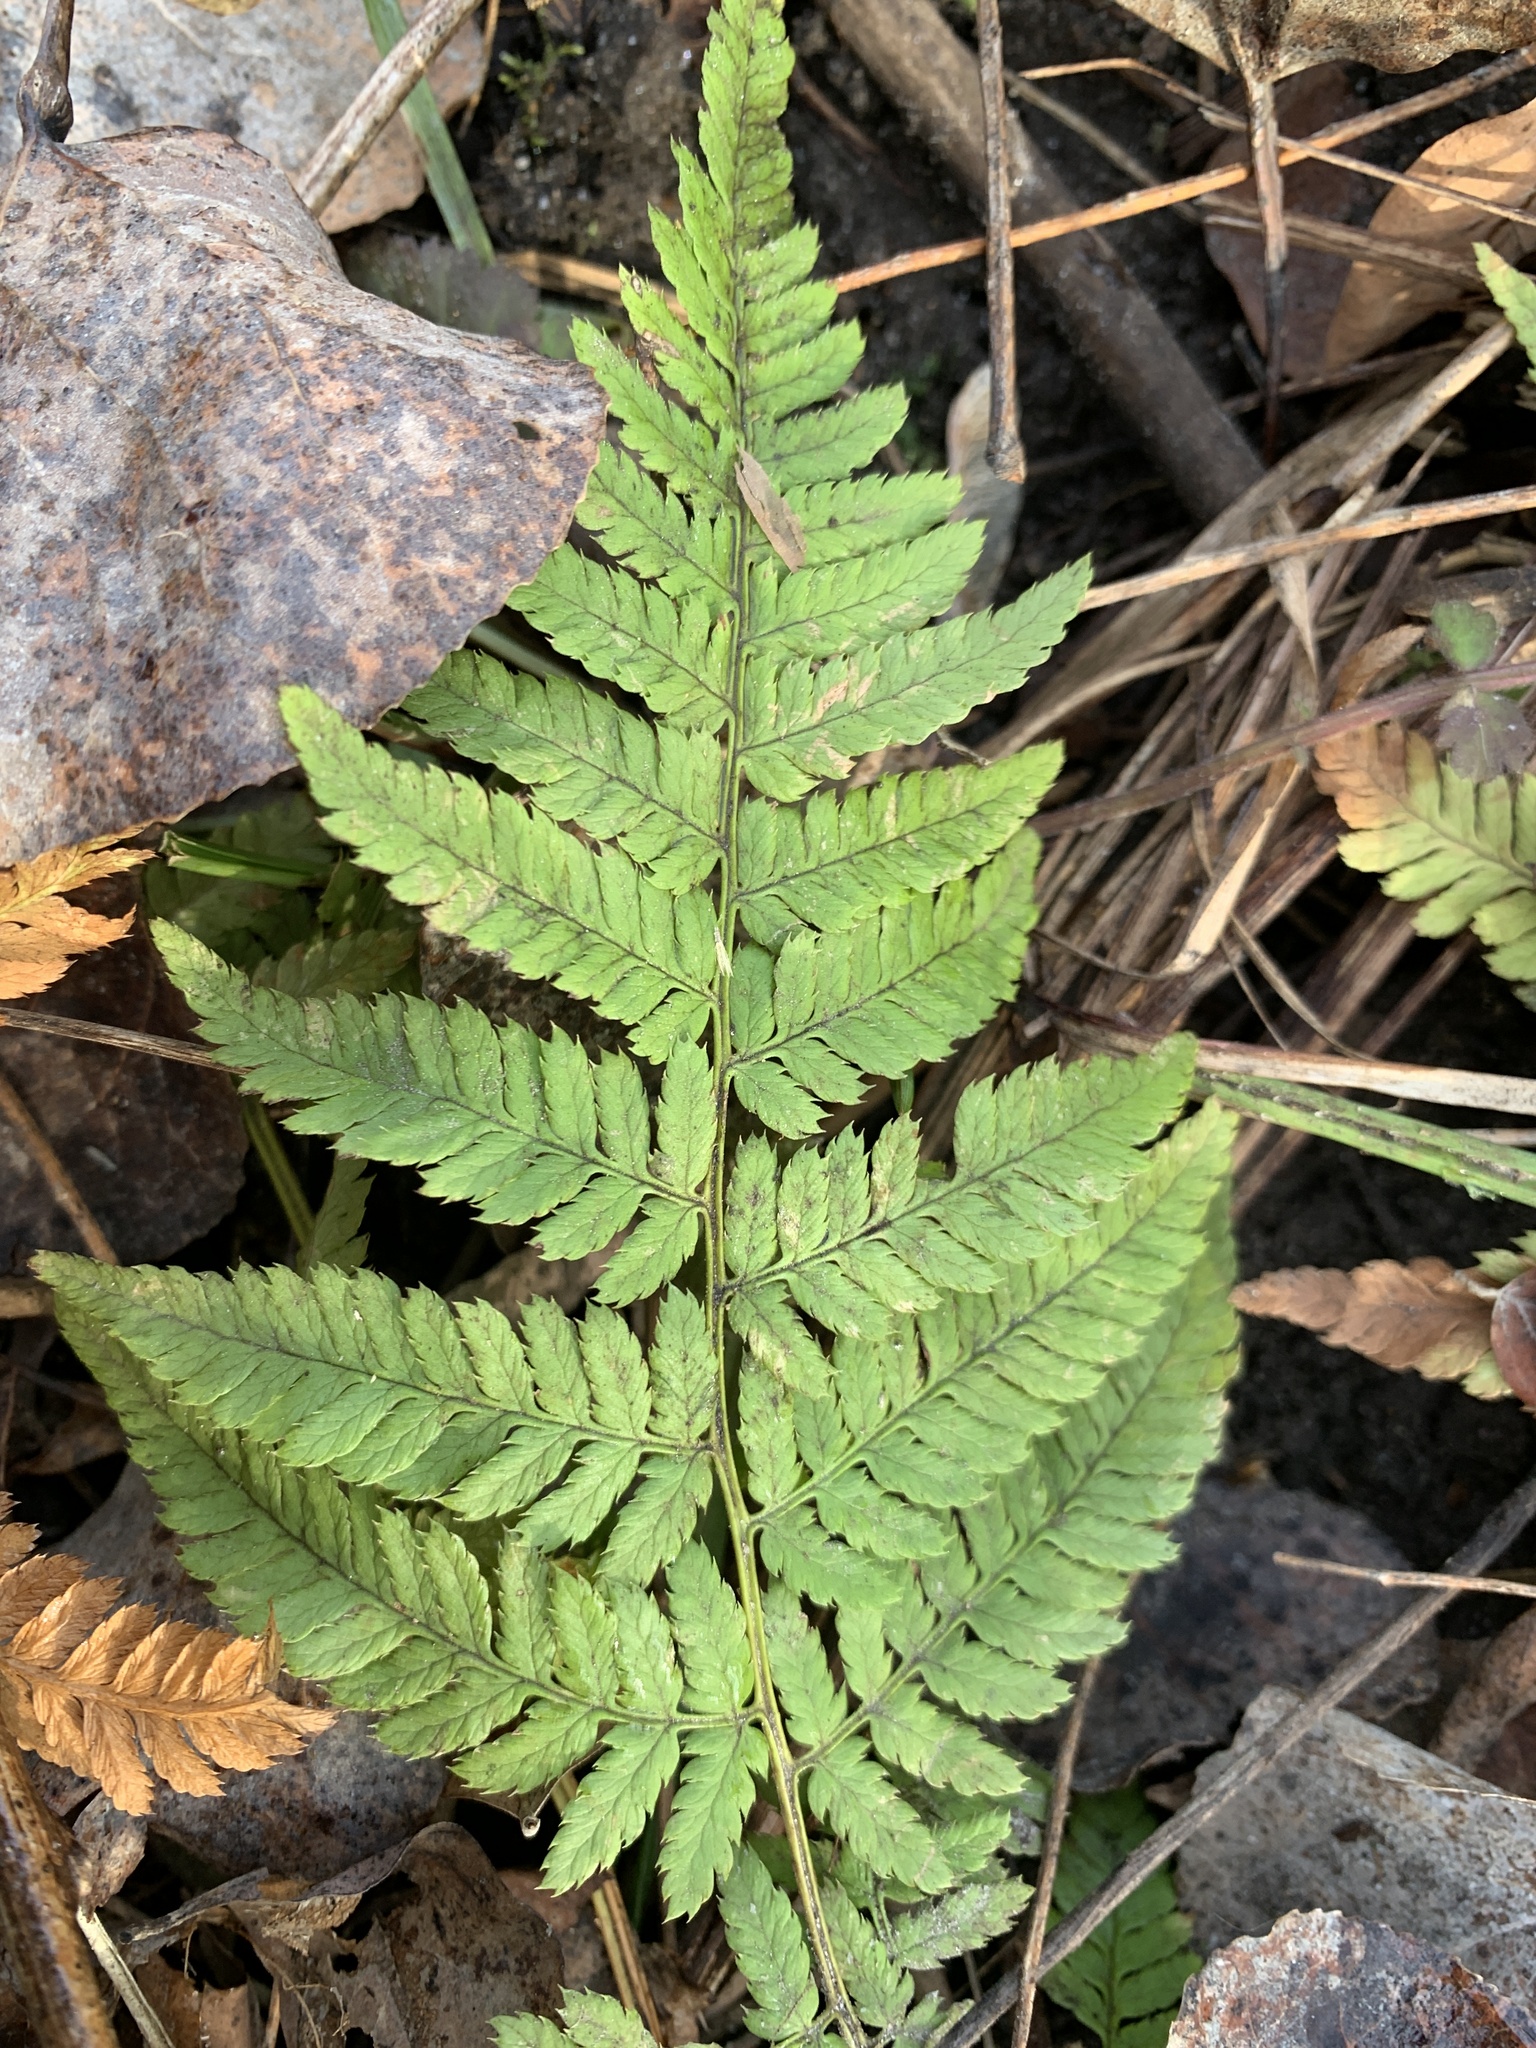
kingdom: Plantae
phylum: Tracheophyta
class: Polypodiopsida
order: Polypodiales
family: Dryopteridaceae
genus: Dryopteris
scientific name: Dryopteris carthusiana
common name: Narrow buckler-fern
